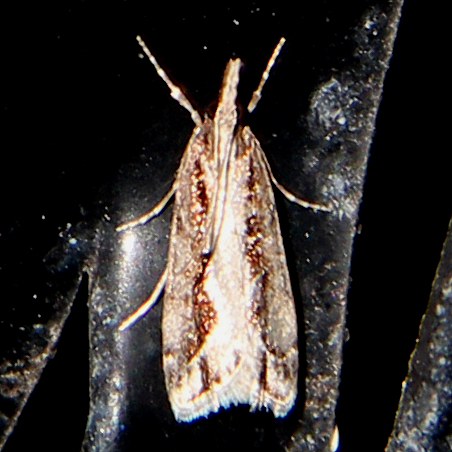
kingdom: Animalia
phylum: Arthropoda
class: Insecta
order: Lepidoptera
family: Crambidae
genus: Eudonia
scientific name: Eudonia steropaea
